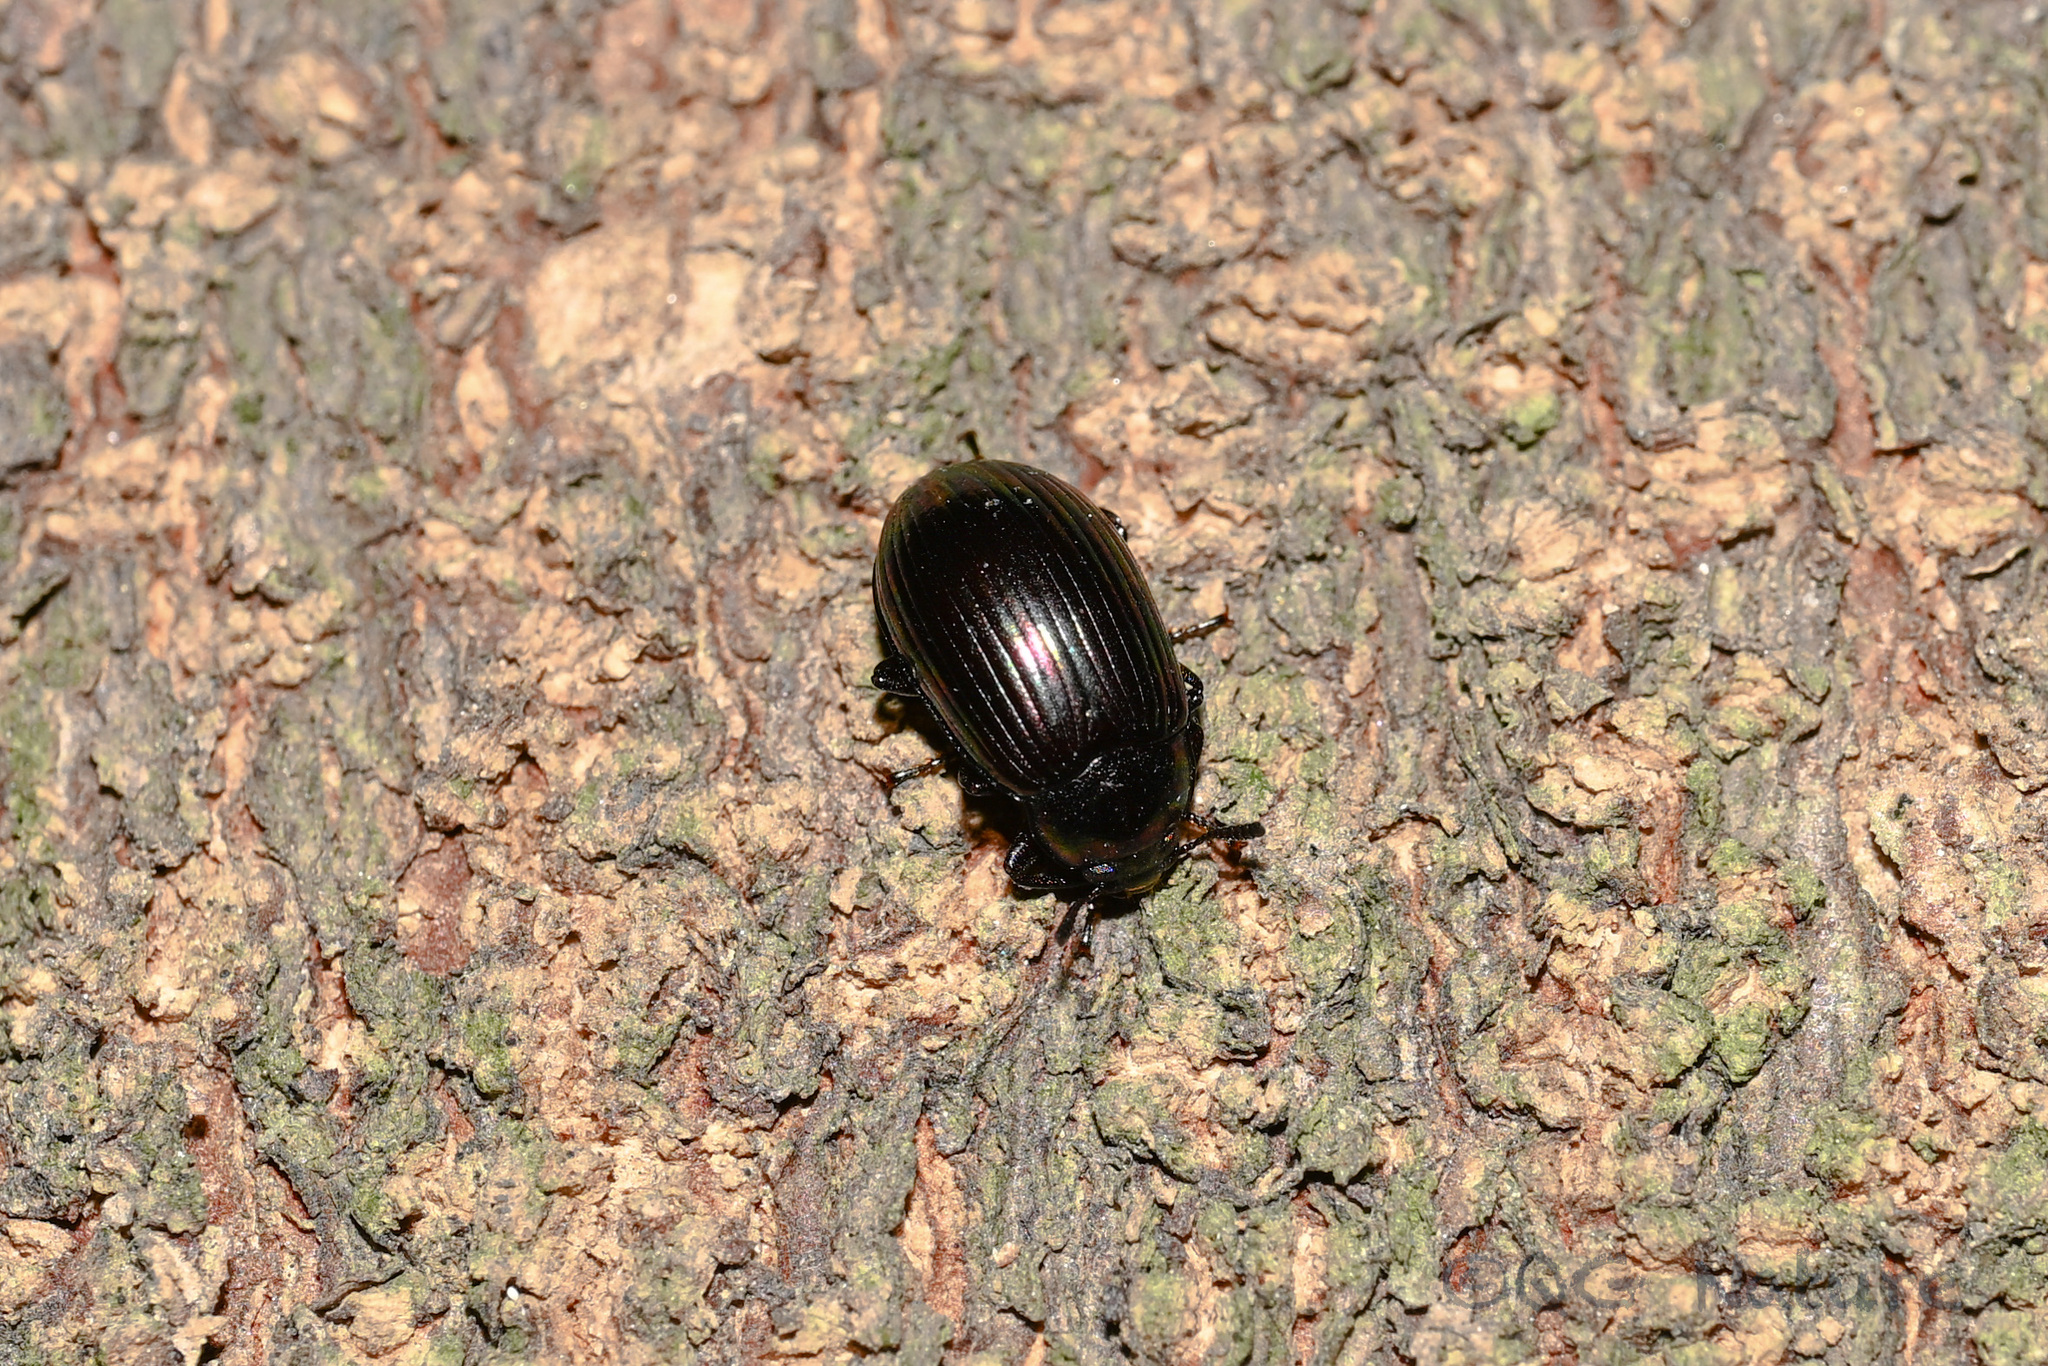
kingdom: Animalia
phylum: Arthropoda
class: Insecta
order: Coleoptera
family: Tenebrionidae
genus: Euhemicera
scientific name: Euhemicera shantita
